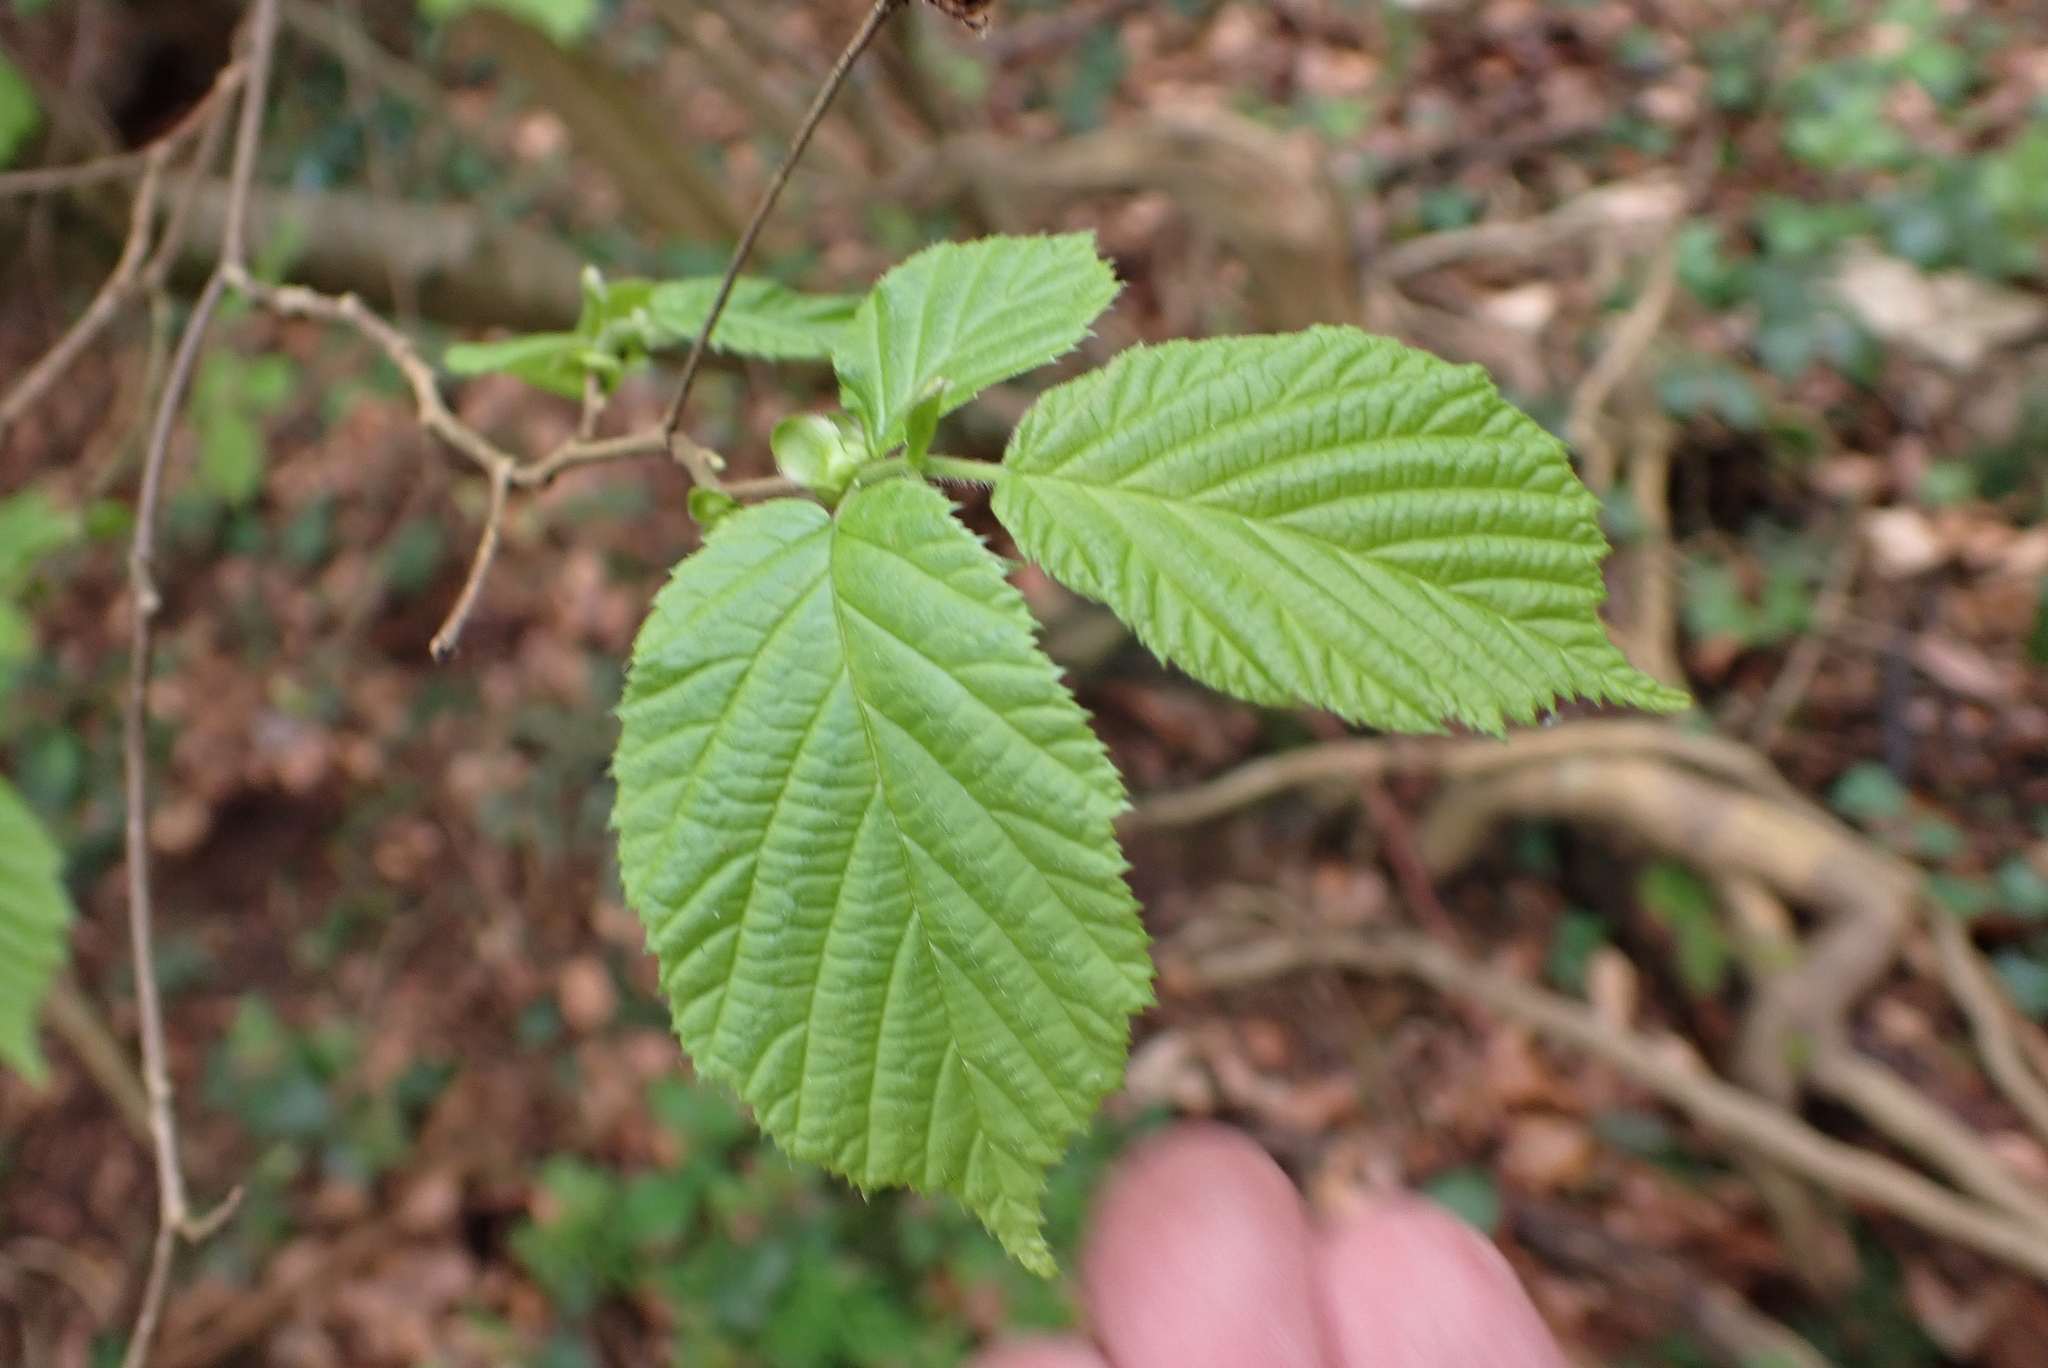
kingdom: Plantae
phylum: Tracheophyta
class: Magnoliopsida
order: Fagales
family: Betulaceae
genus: Corylus
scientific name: Corylus avellana
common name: European hazel
